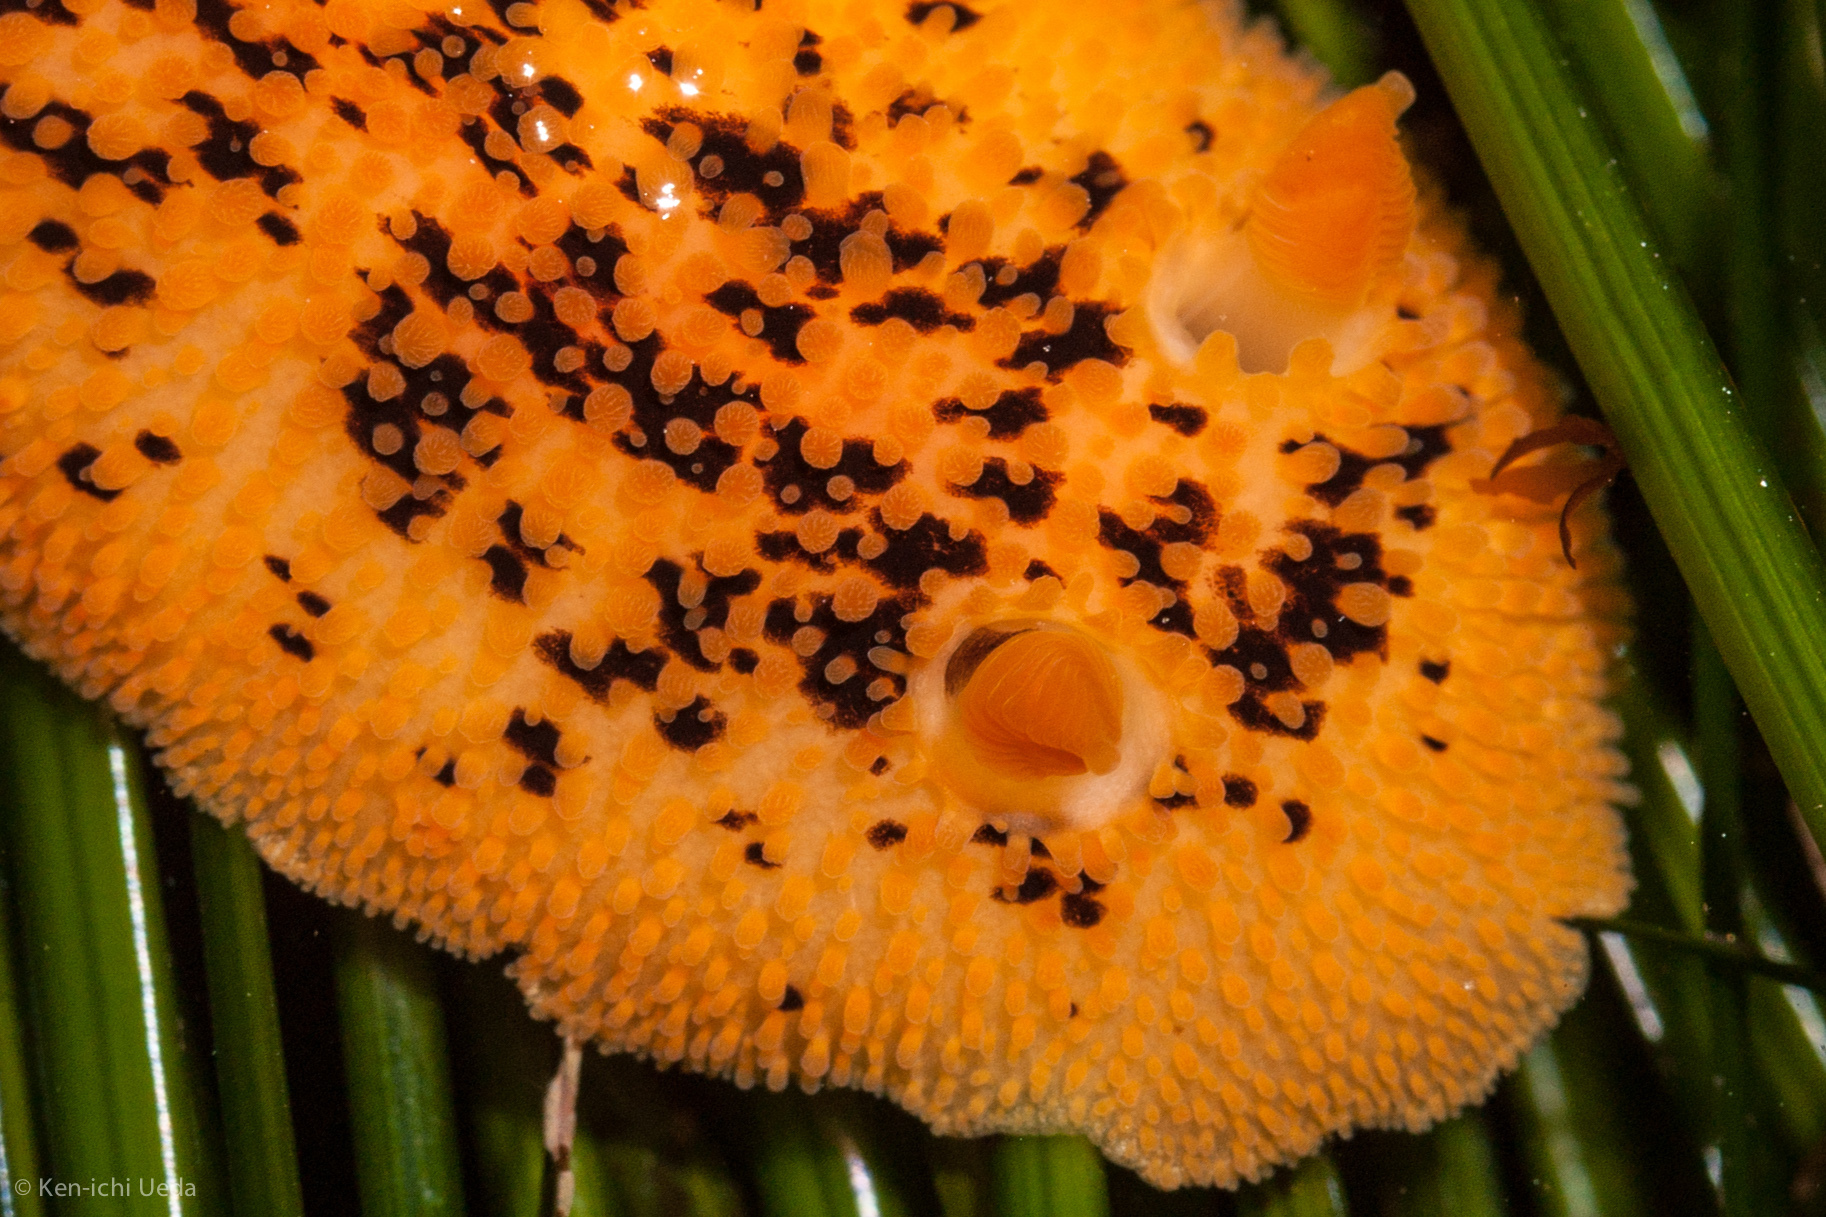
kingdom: Animalia
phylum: Mollusca
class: Gastropoda
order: Nudibranchia
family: Discodorididae
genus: Peltodoris
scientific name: Peltodoris nobilis
